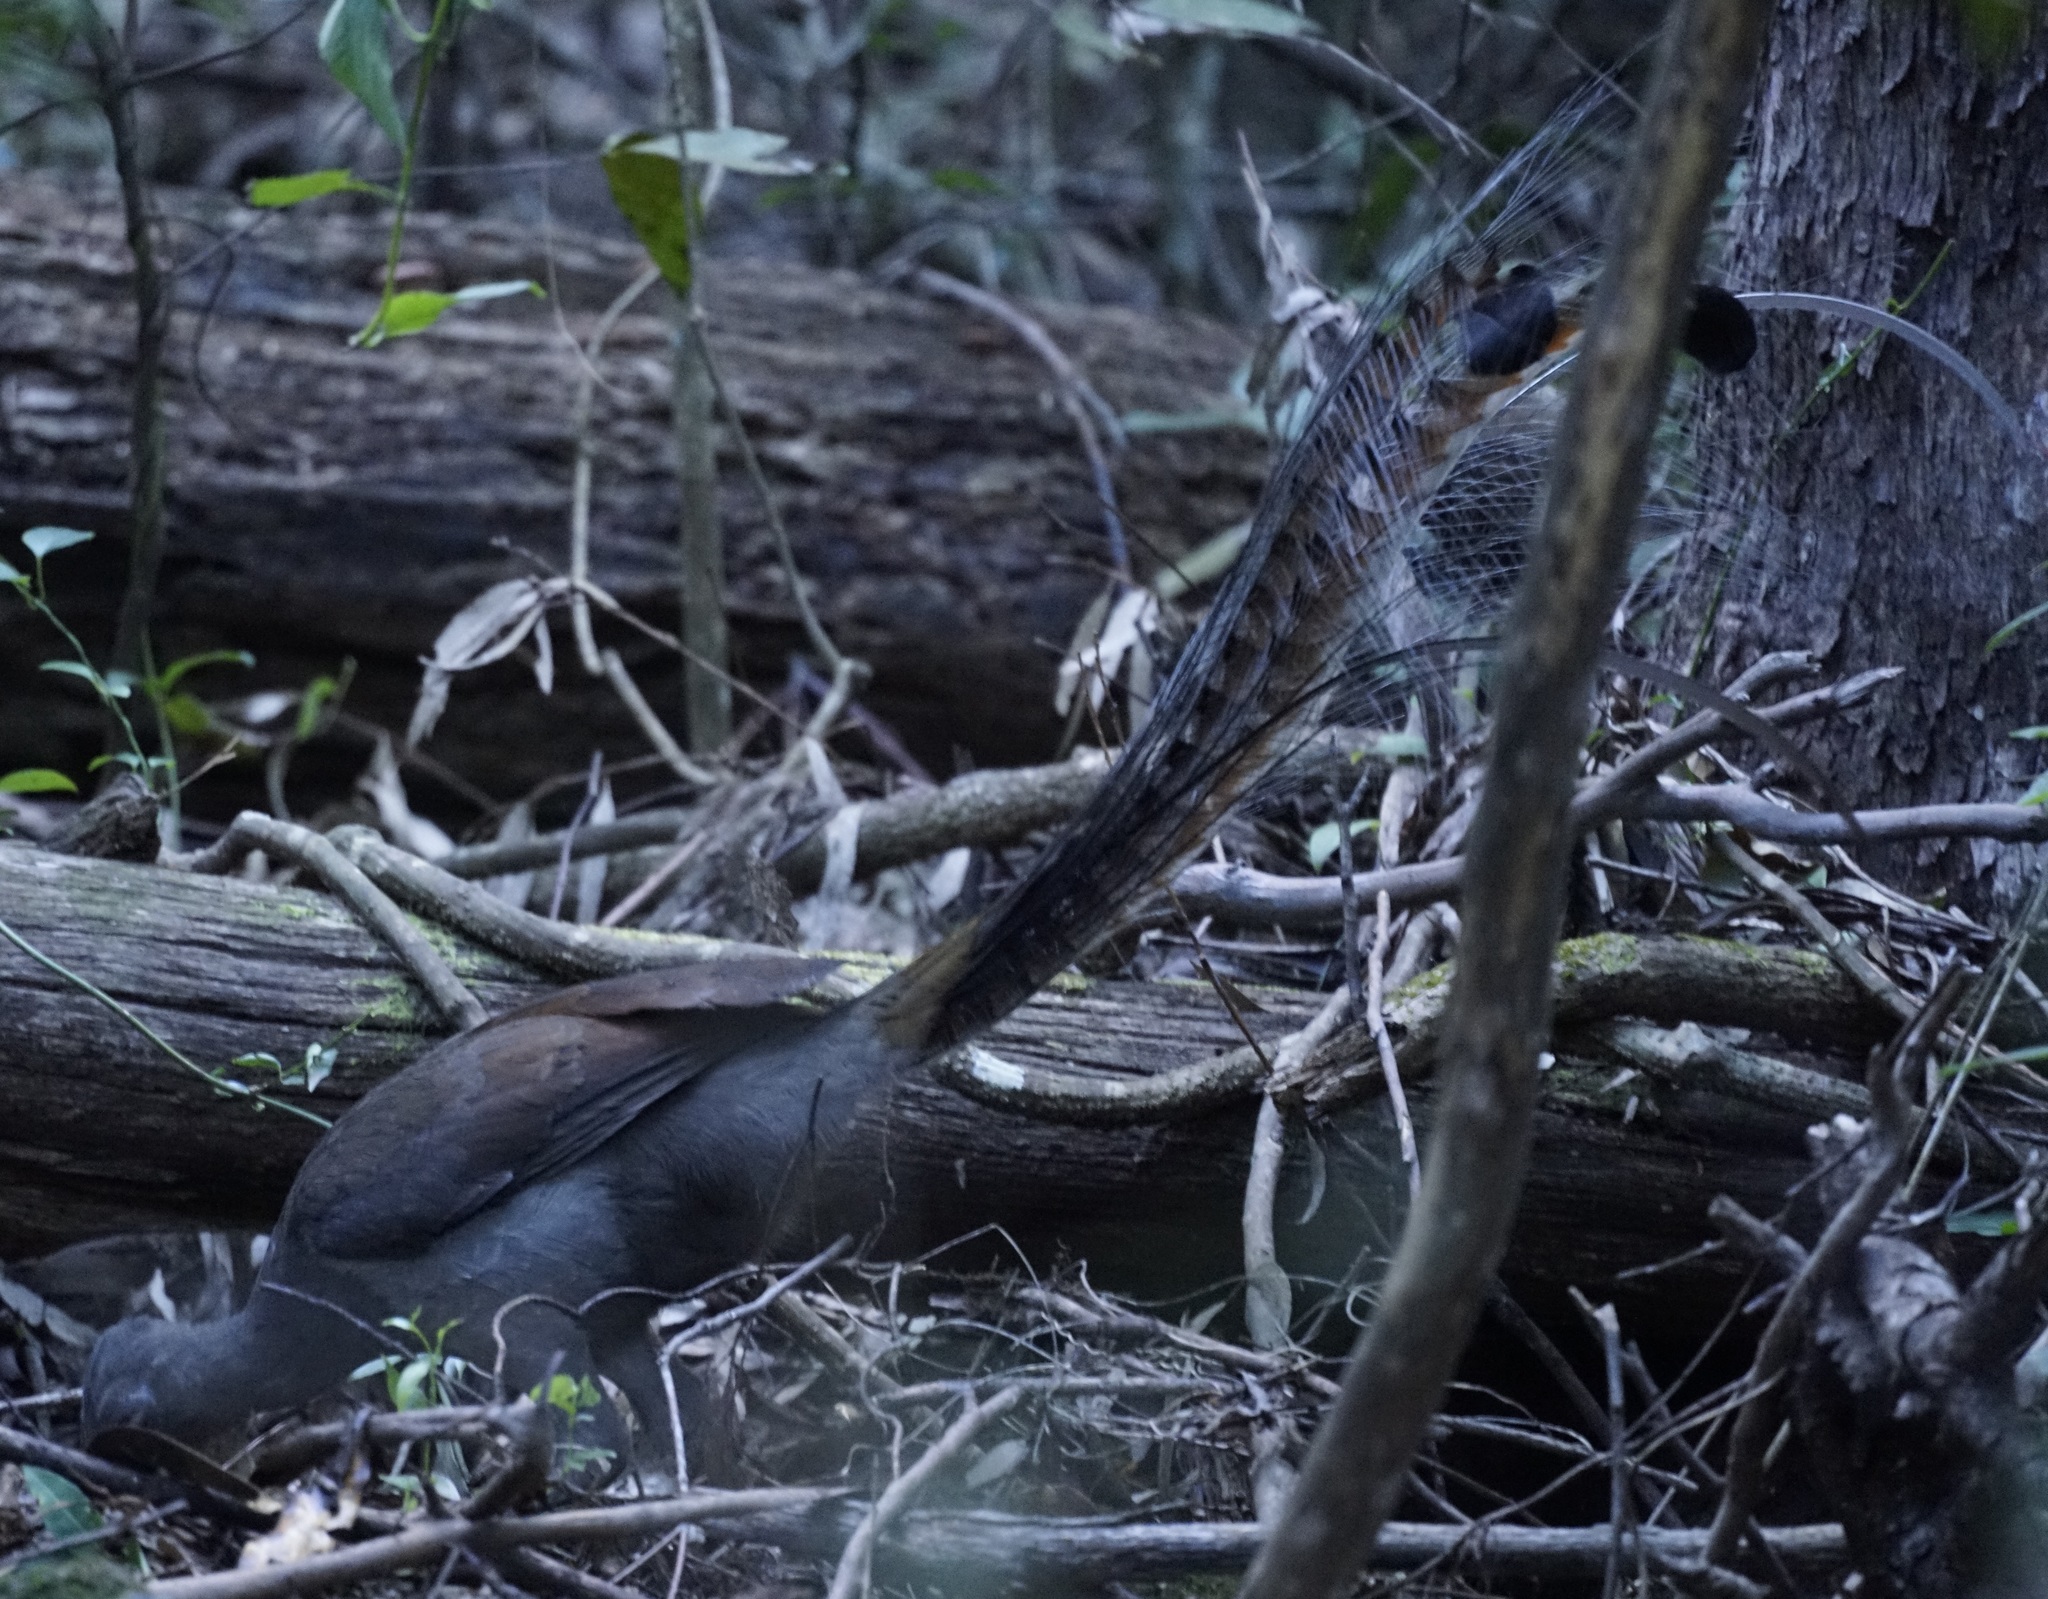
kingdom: Animalia
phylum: Chordata
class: Aves
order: Passeriformes
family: Menuridae
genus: Menura
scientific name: Menura novaehollandiae
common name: Superb lyrebird
